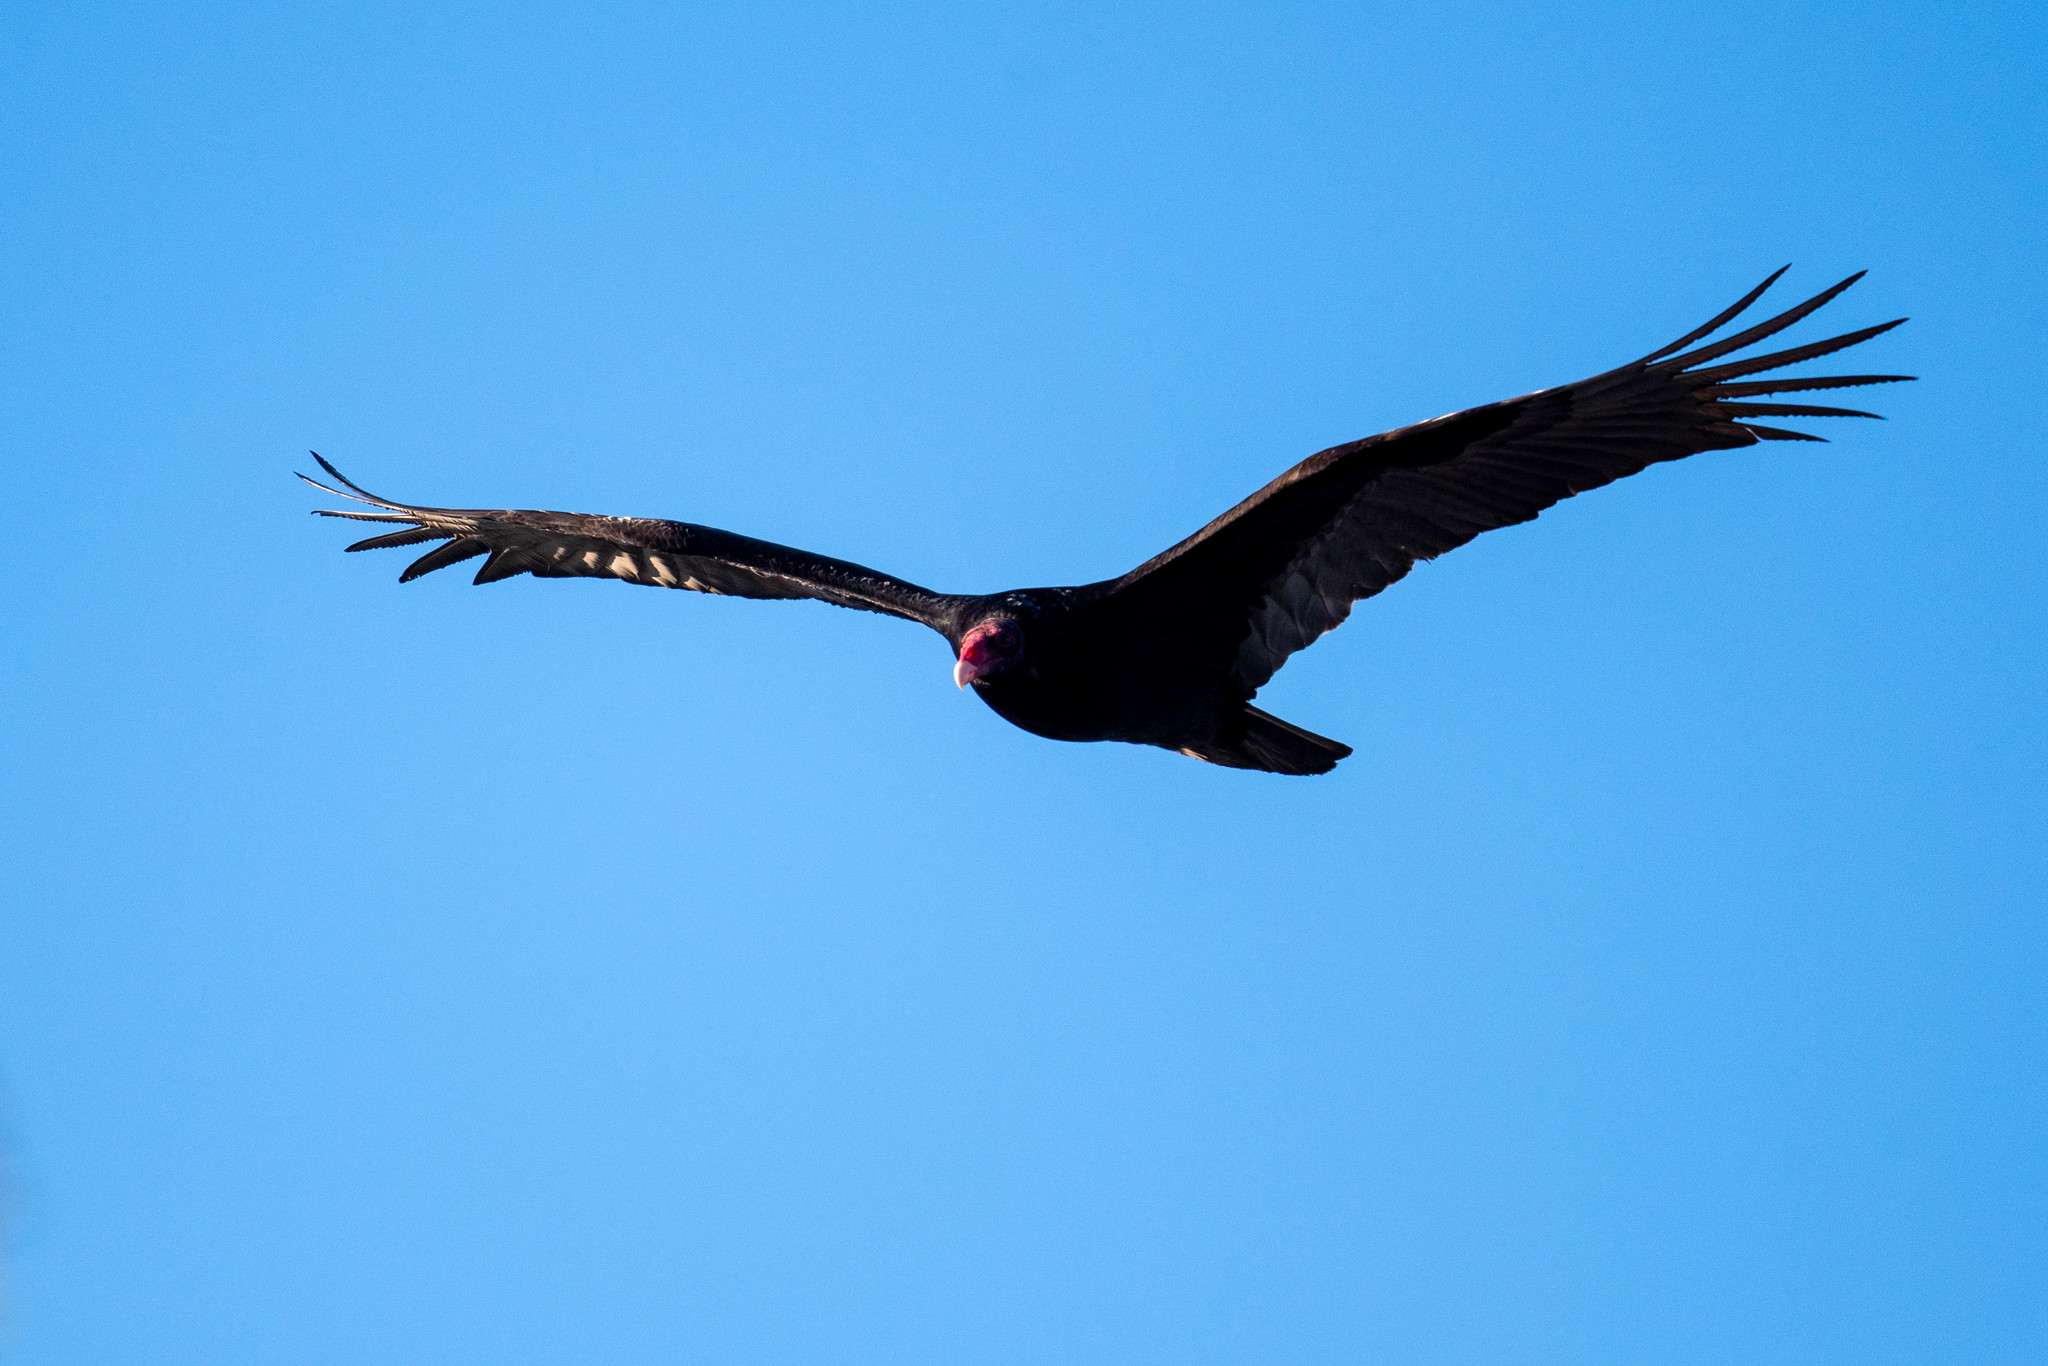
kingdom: Animalia
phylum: Chordata
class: Aves
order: Accipitriformes
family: Cathartidae
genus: Cathartes
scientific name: Cathartes aura
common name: Turkey vulture
